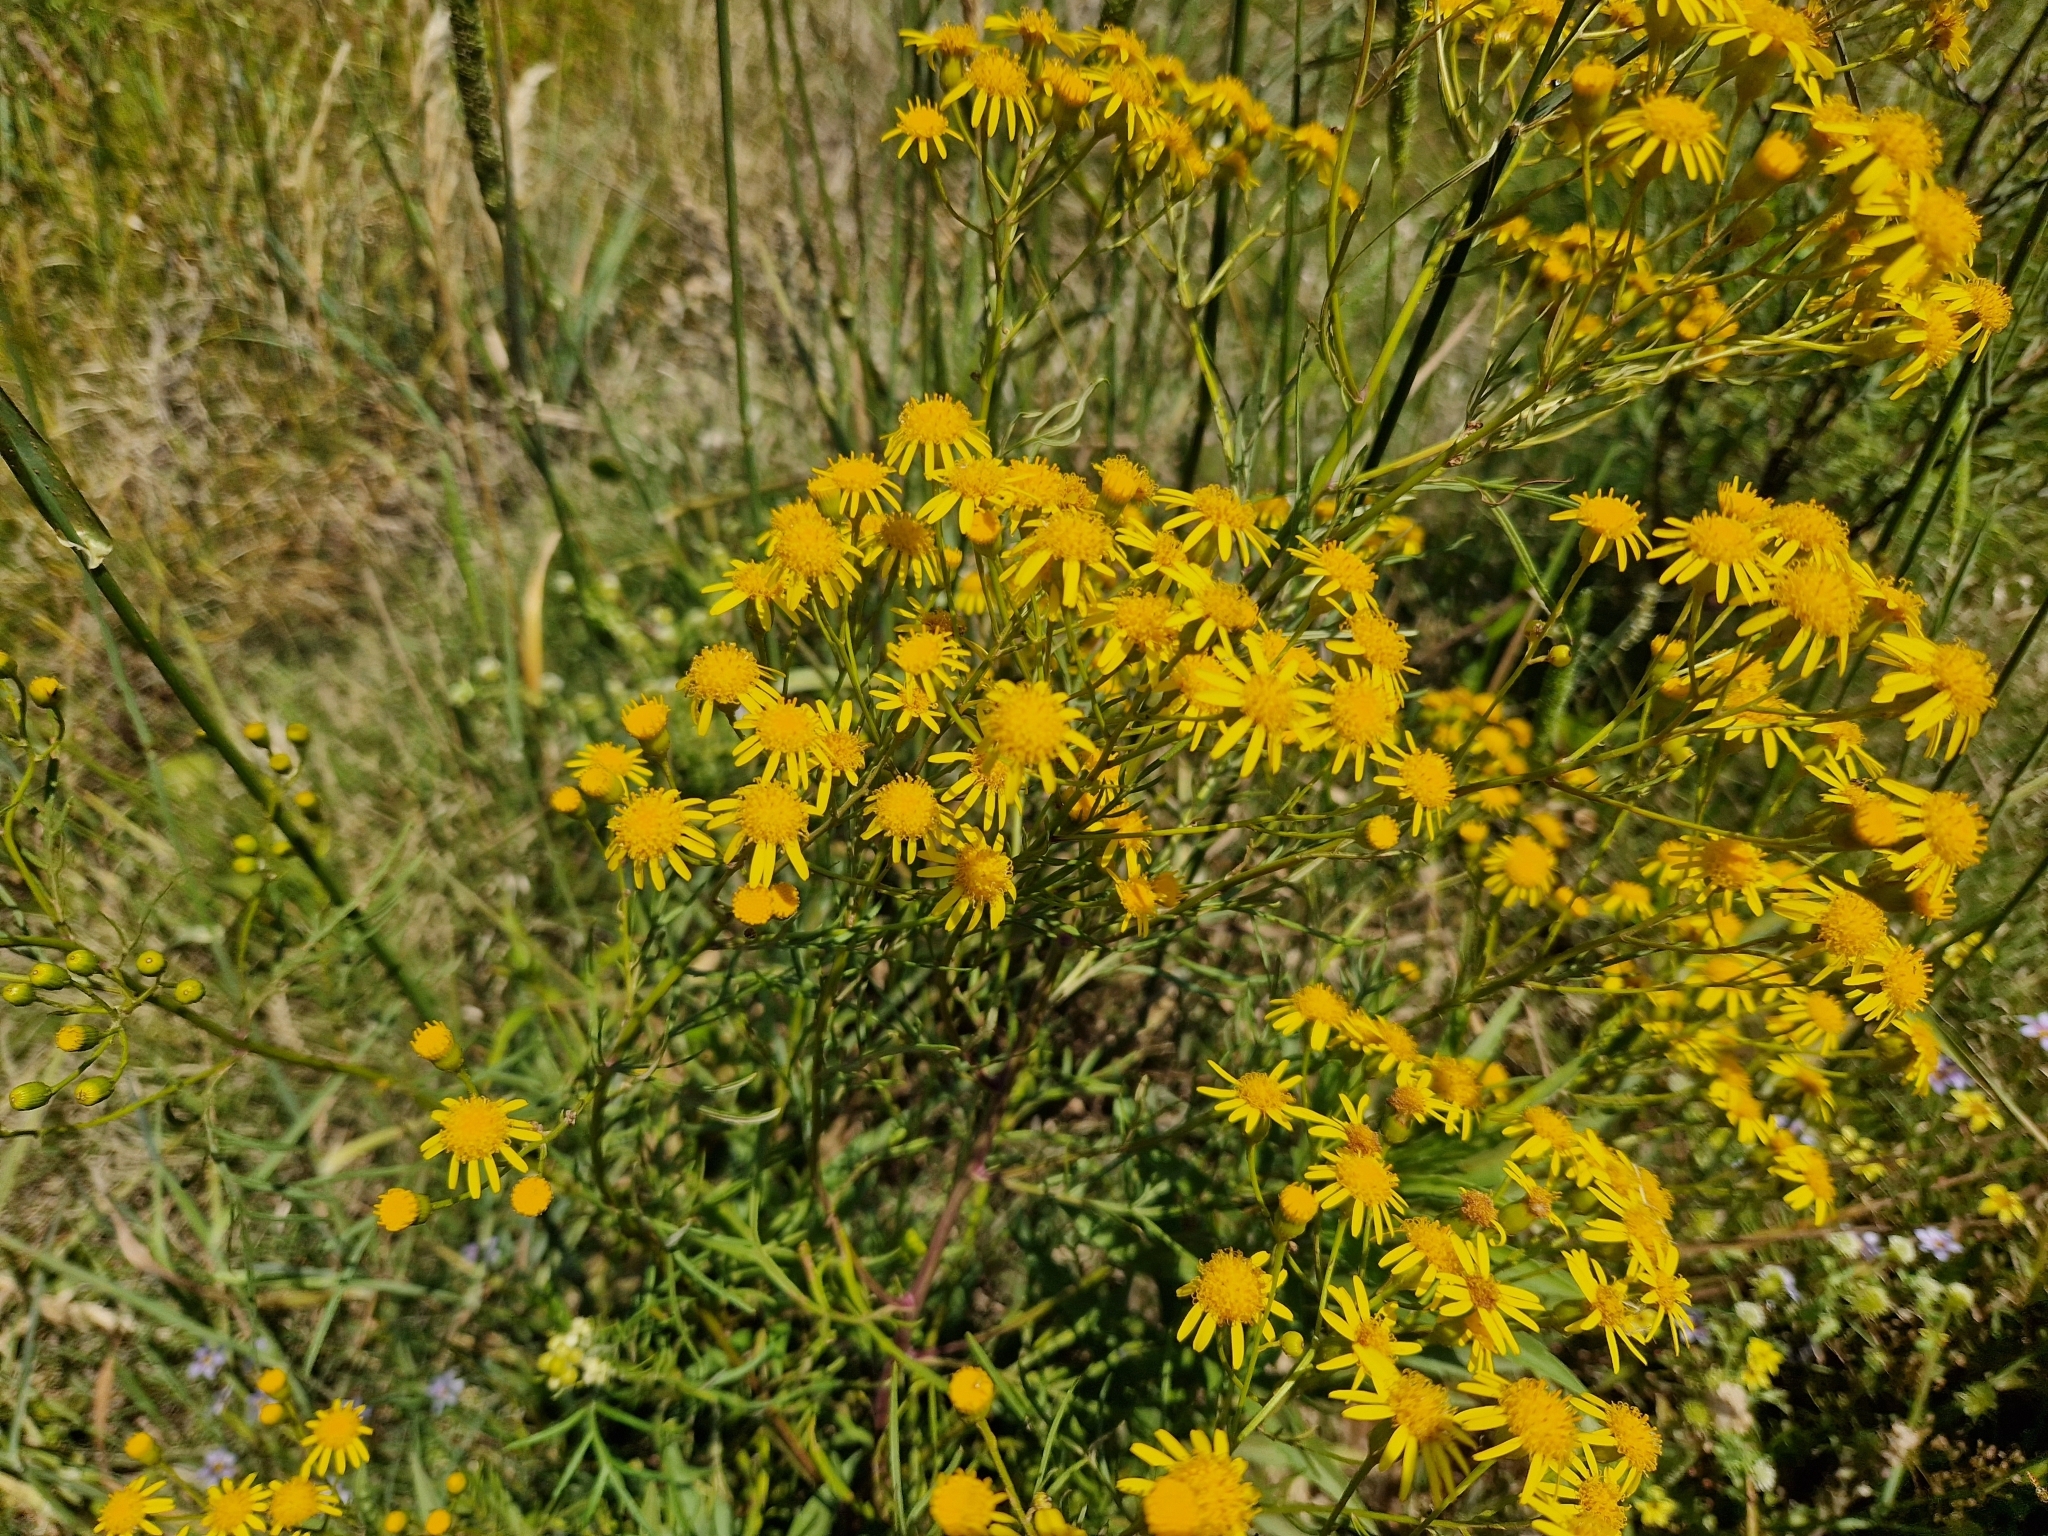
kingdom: Plantae
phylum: Tracheophyta
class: Magnoliopsida
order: Asterales
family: Asteraceae
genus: Senecio
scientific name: Senecio brasiliensis
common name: Hemp-leaf ragwort
